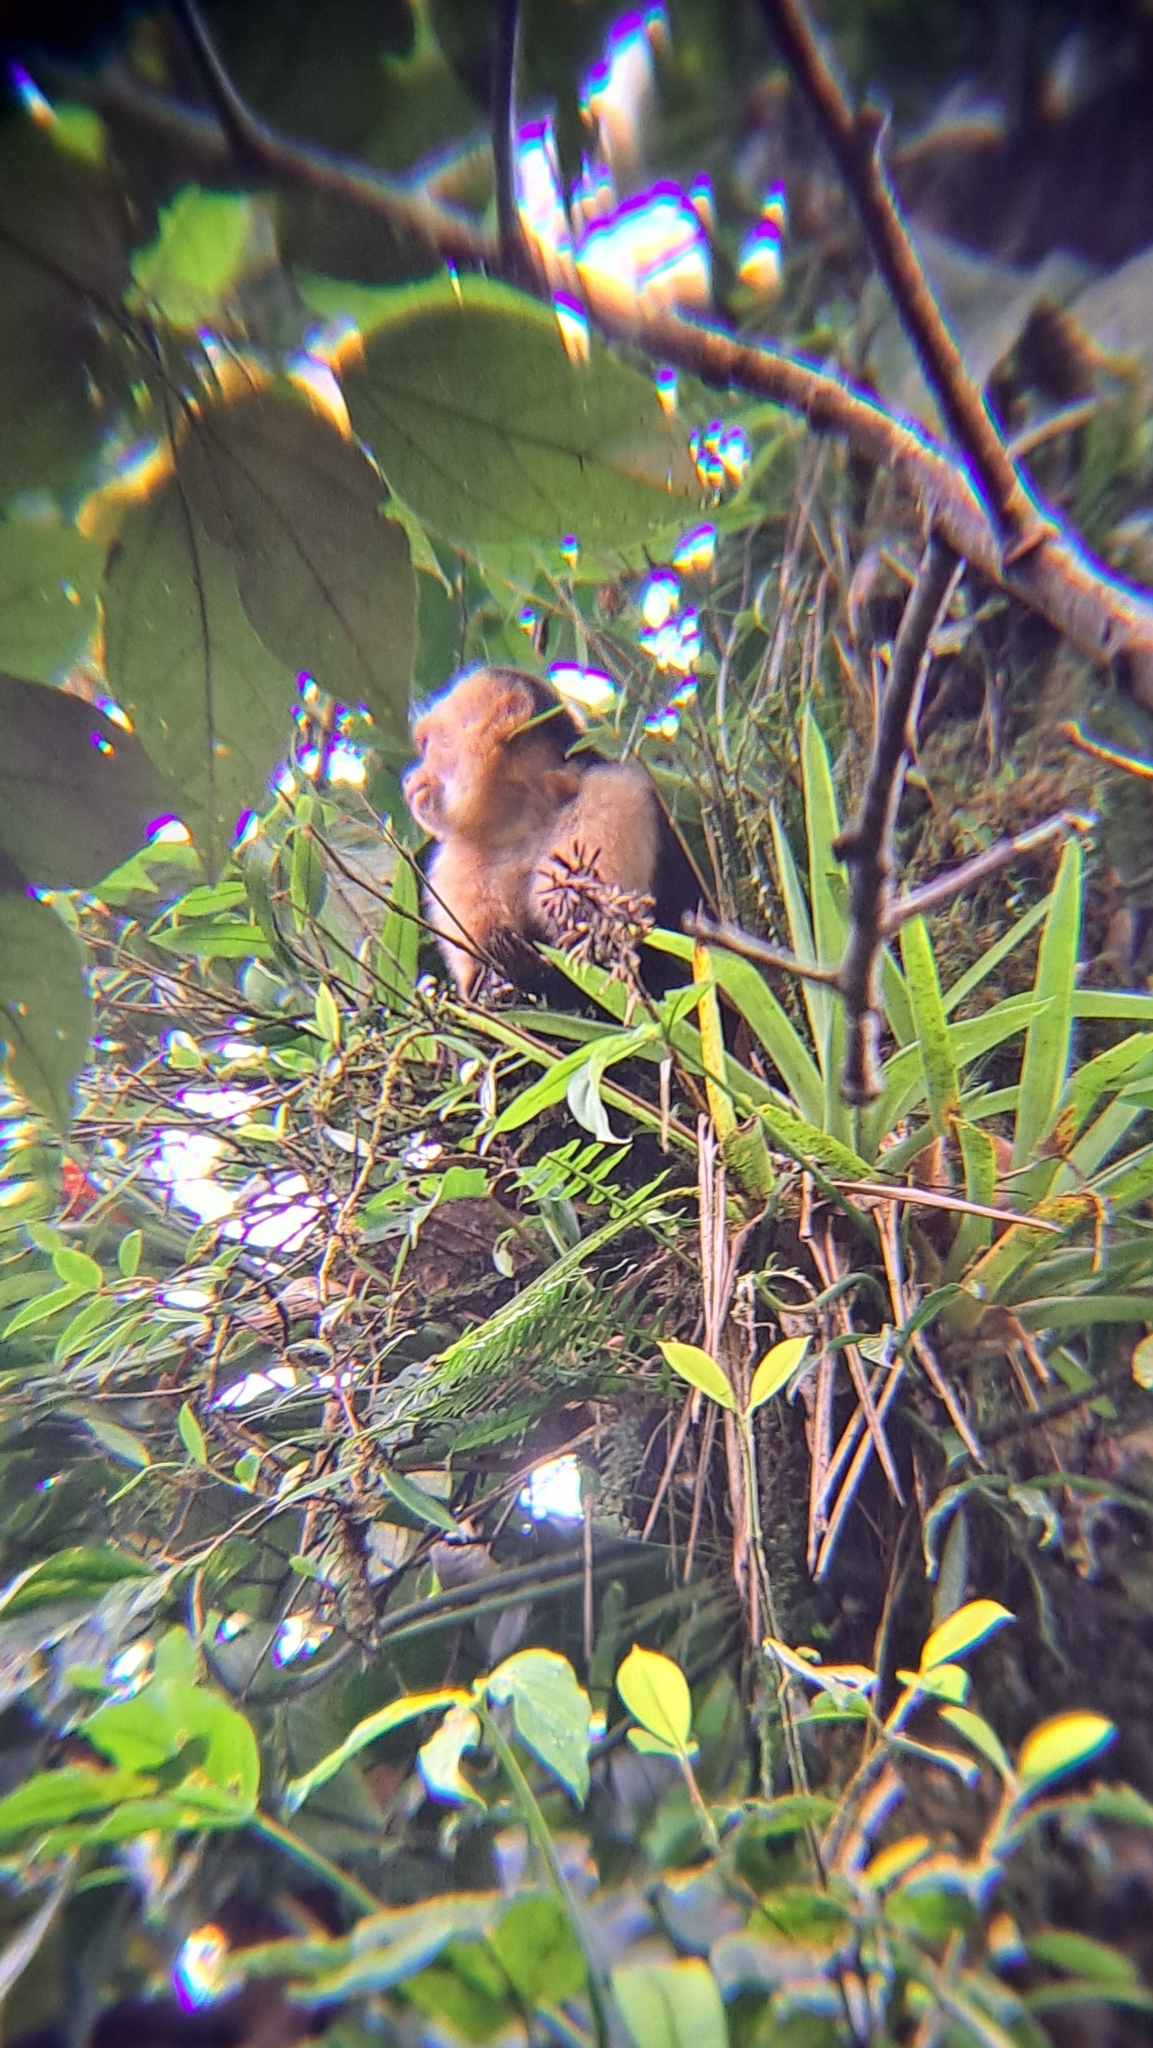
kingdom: Animalia
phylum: Chordata
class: Mammalia
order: Primates
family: Cebidae
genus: Cebus
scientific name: Cebus imitator
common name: Panamanian white-faced capuchin
